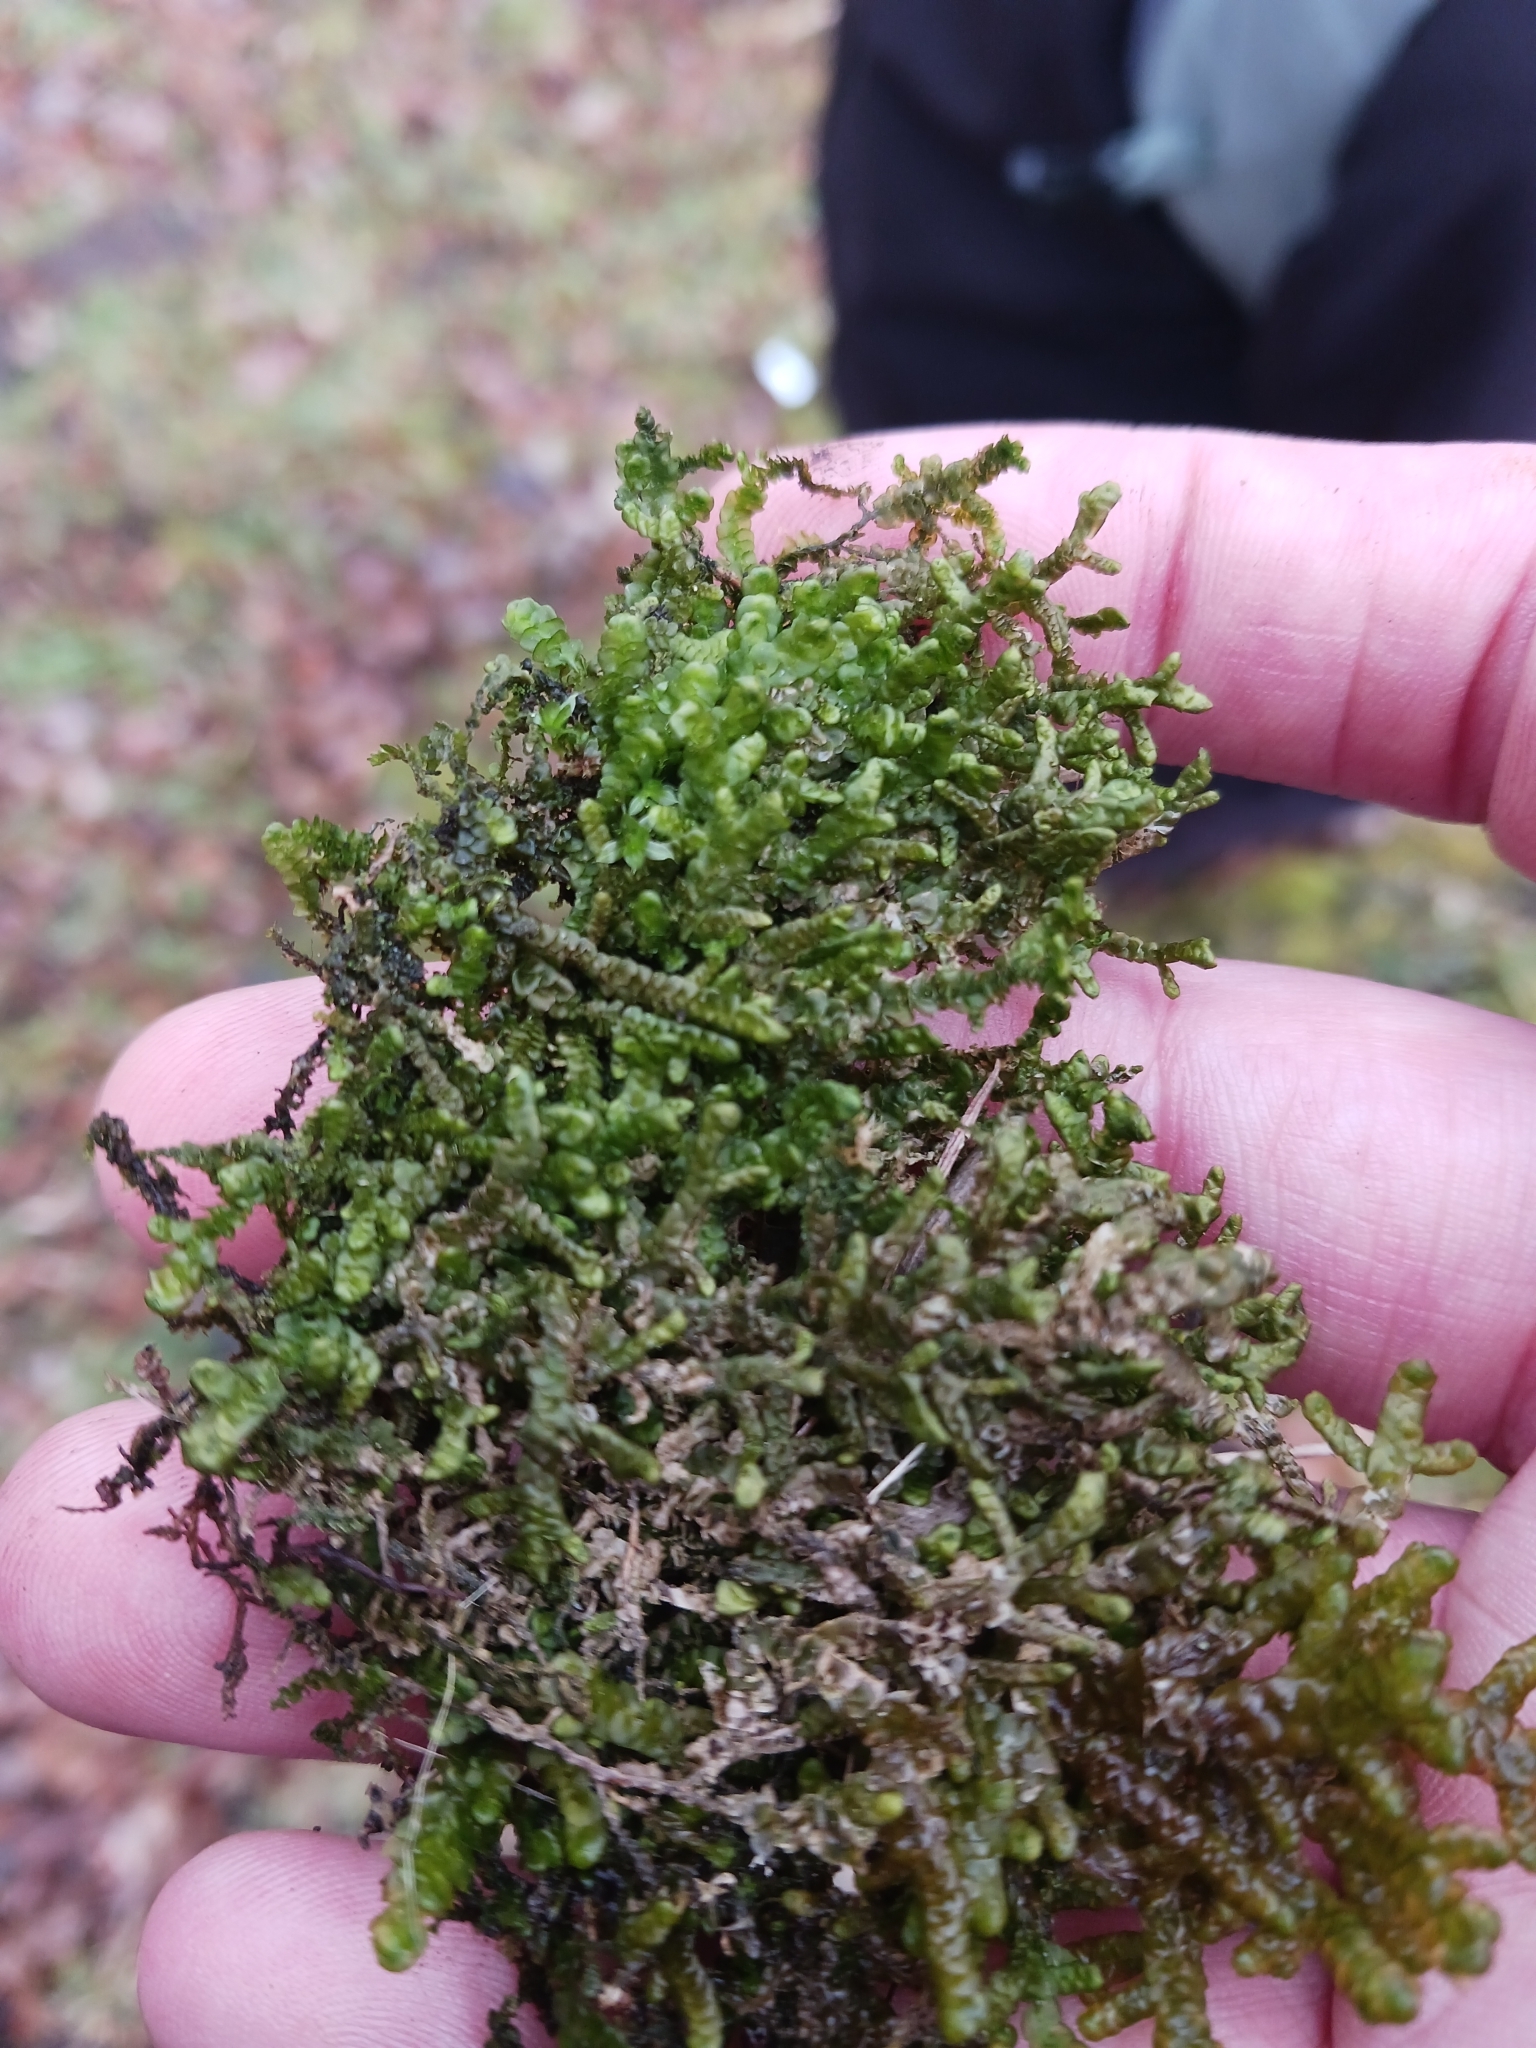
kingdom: Plantae
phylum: Marchantiophyta
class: Jungermanniopsida
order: Porellales
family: Porellaceae
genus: Porella
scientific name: Porella platyphylla
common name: Wall scalewort
